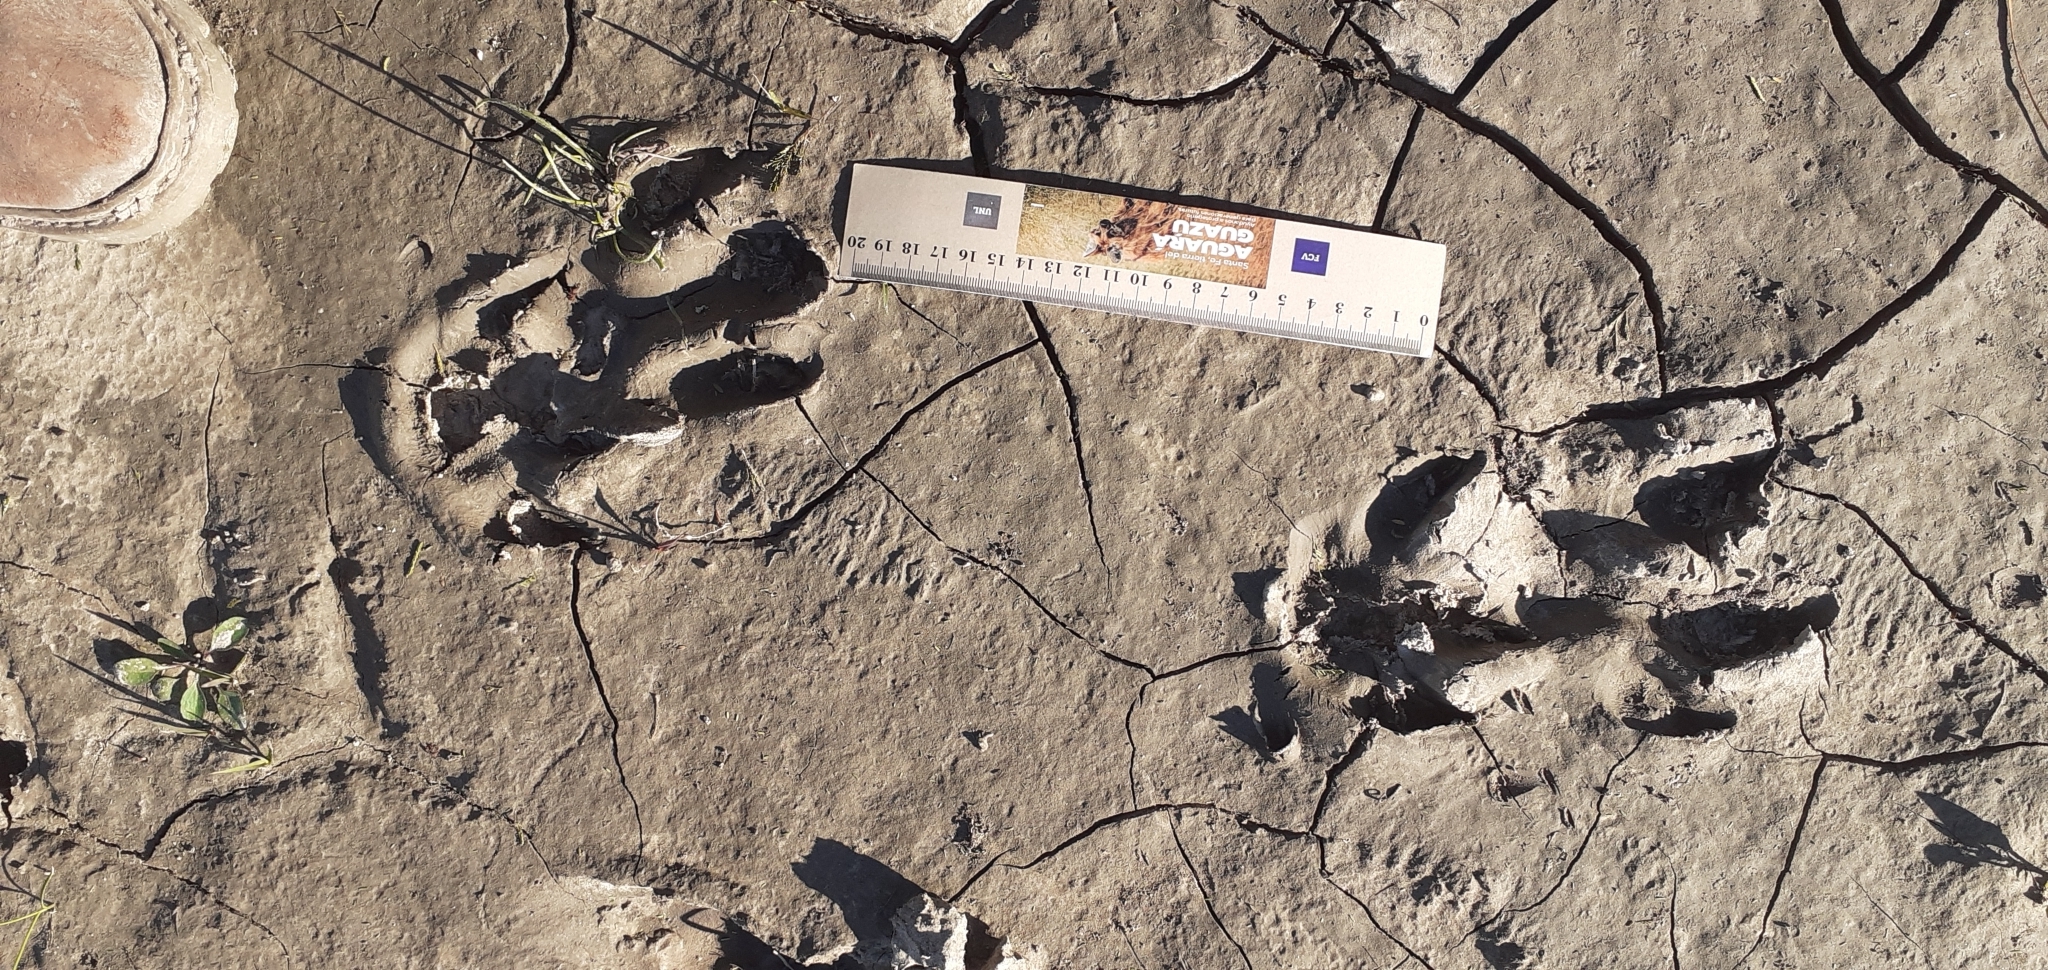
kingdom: Animalia
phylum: Chordata
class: Mammalia
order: Rodentia
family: Caviidae
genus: Hydrochoerus
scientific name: Hydrochoerus hydrochaeris
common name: Capybara
